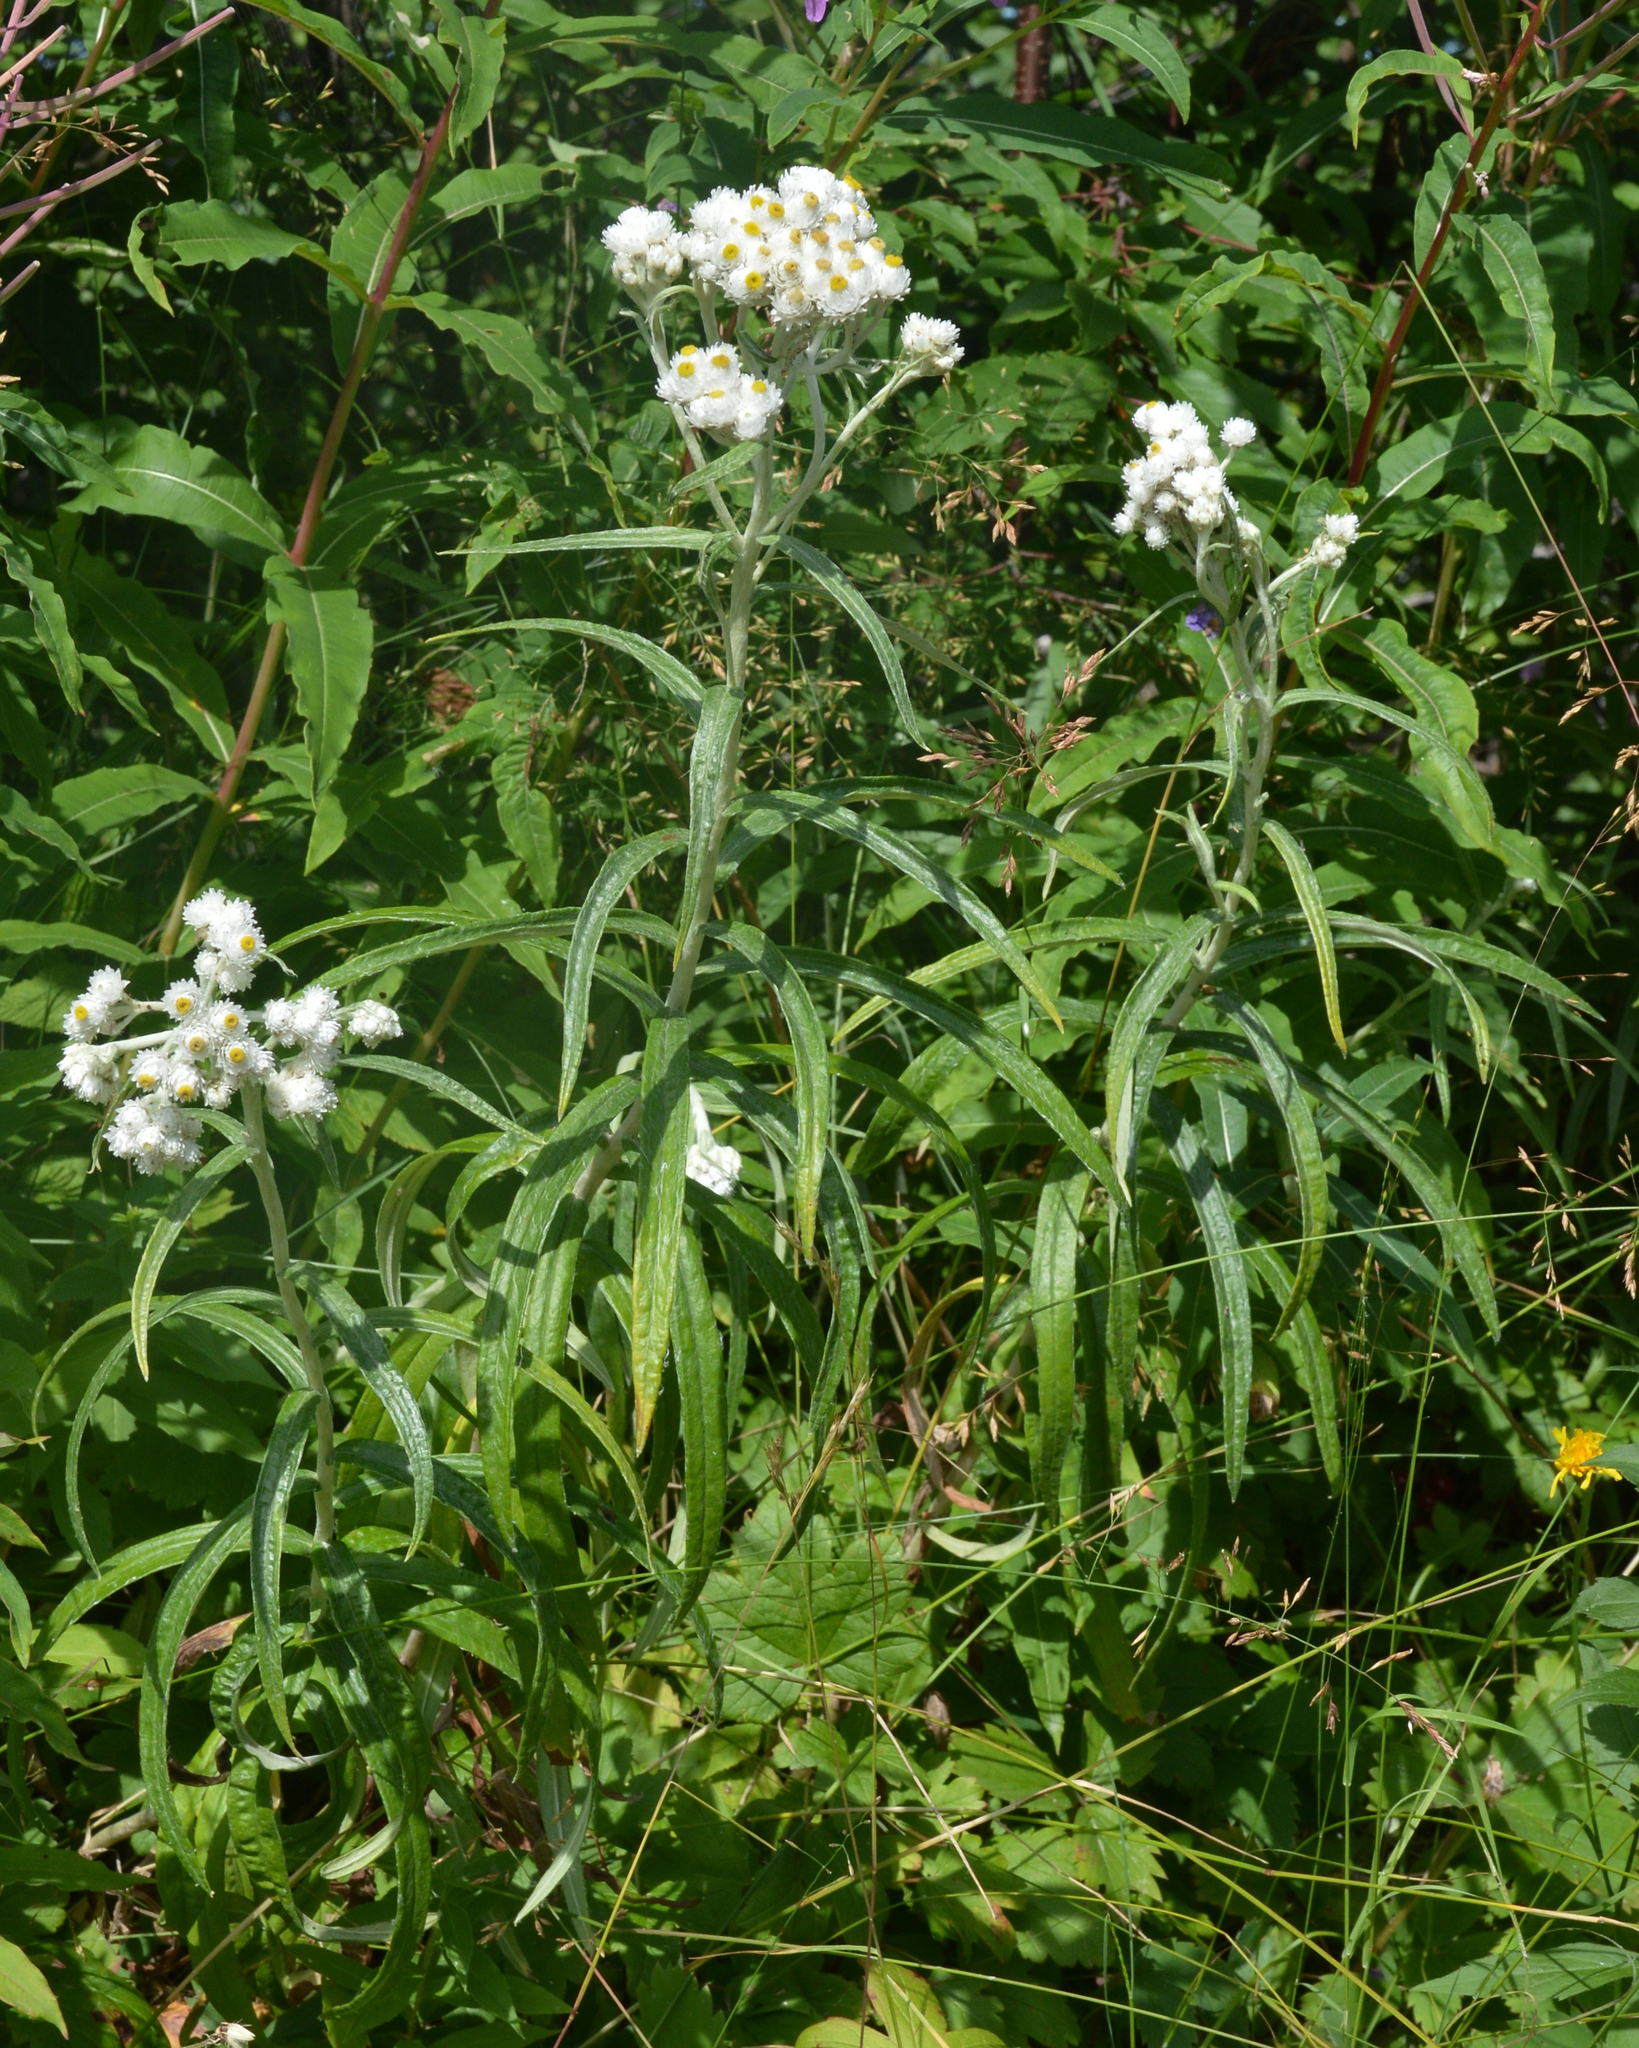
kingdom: Plantae
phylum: Tracheophyta
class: Magnoliopsida
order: Asterales
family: Asteraceae
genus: Anaphalis
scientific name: Anaphalis margaritacea
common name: Pearly everlasting
